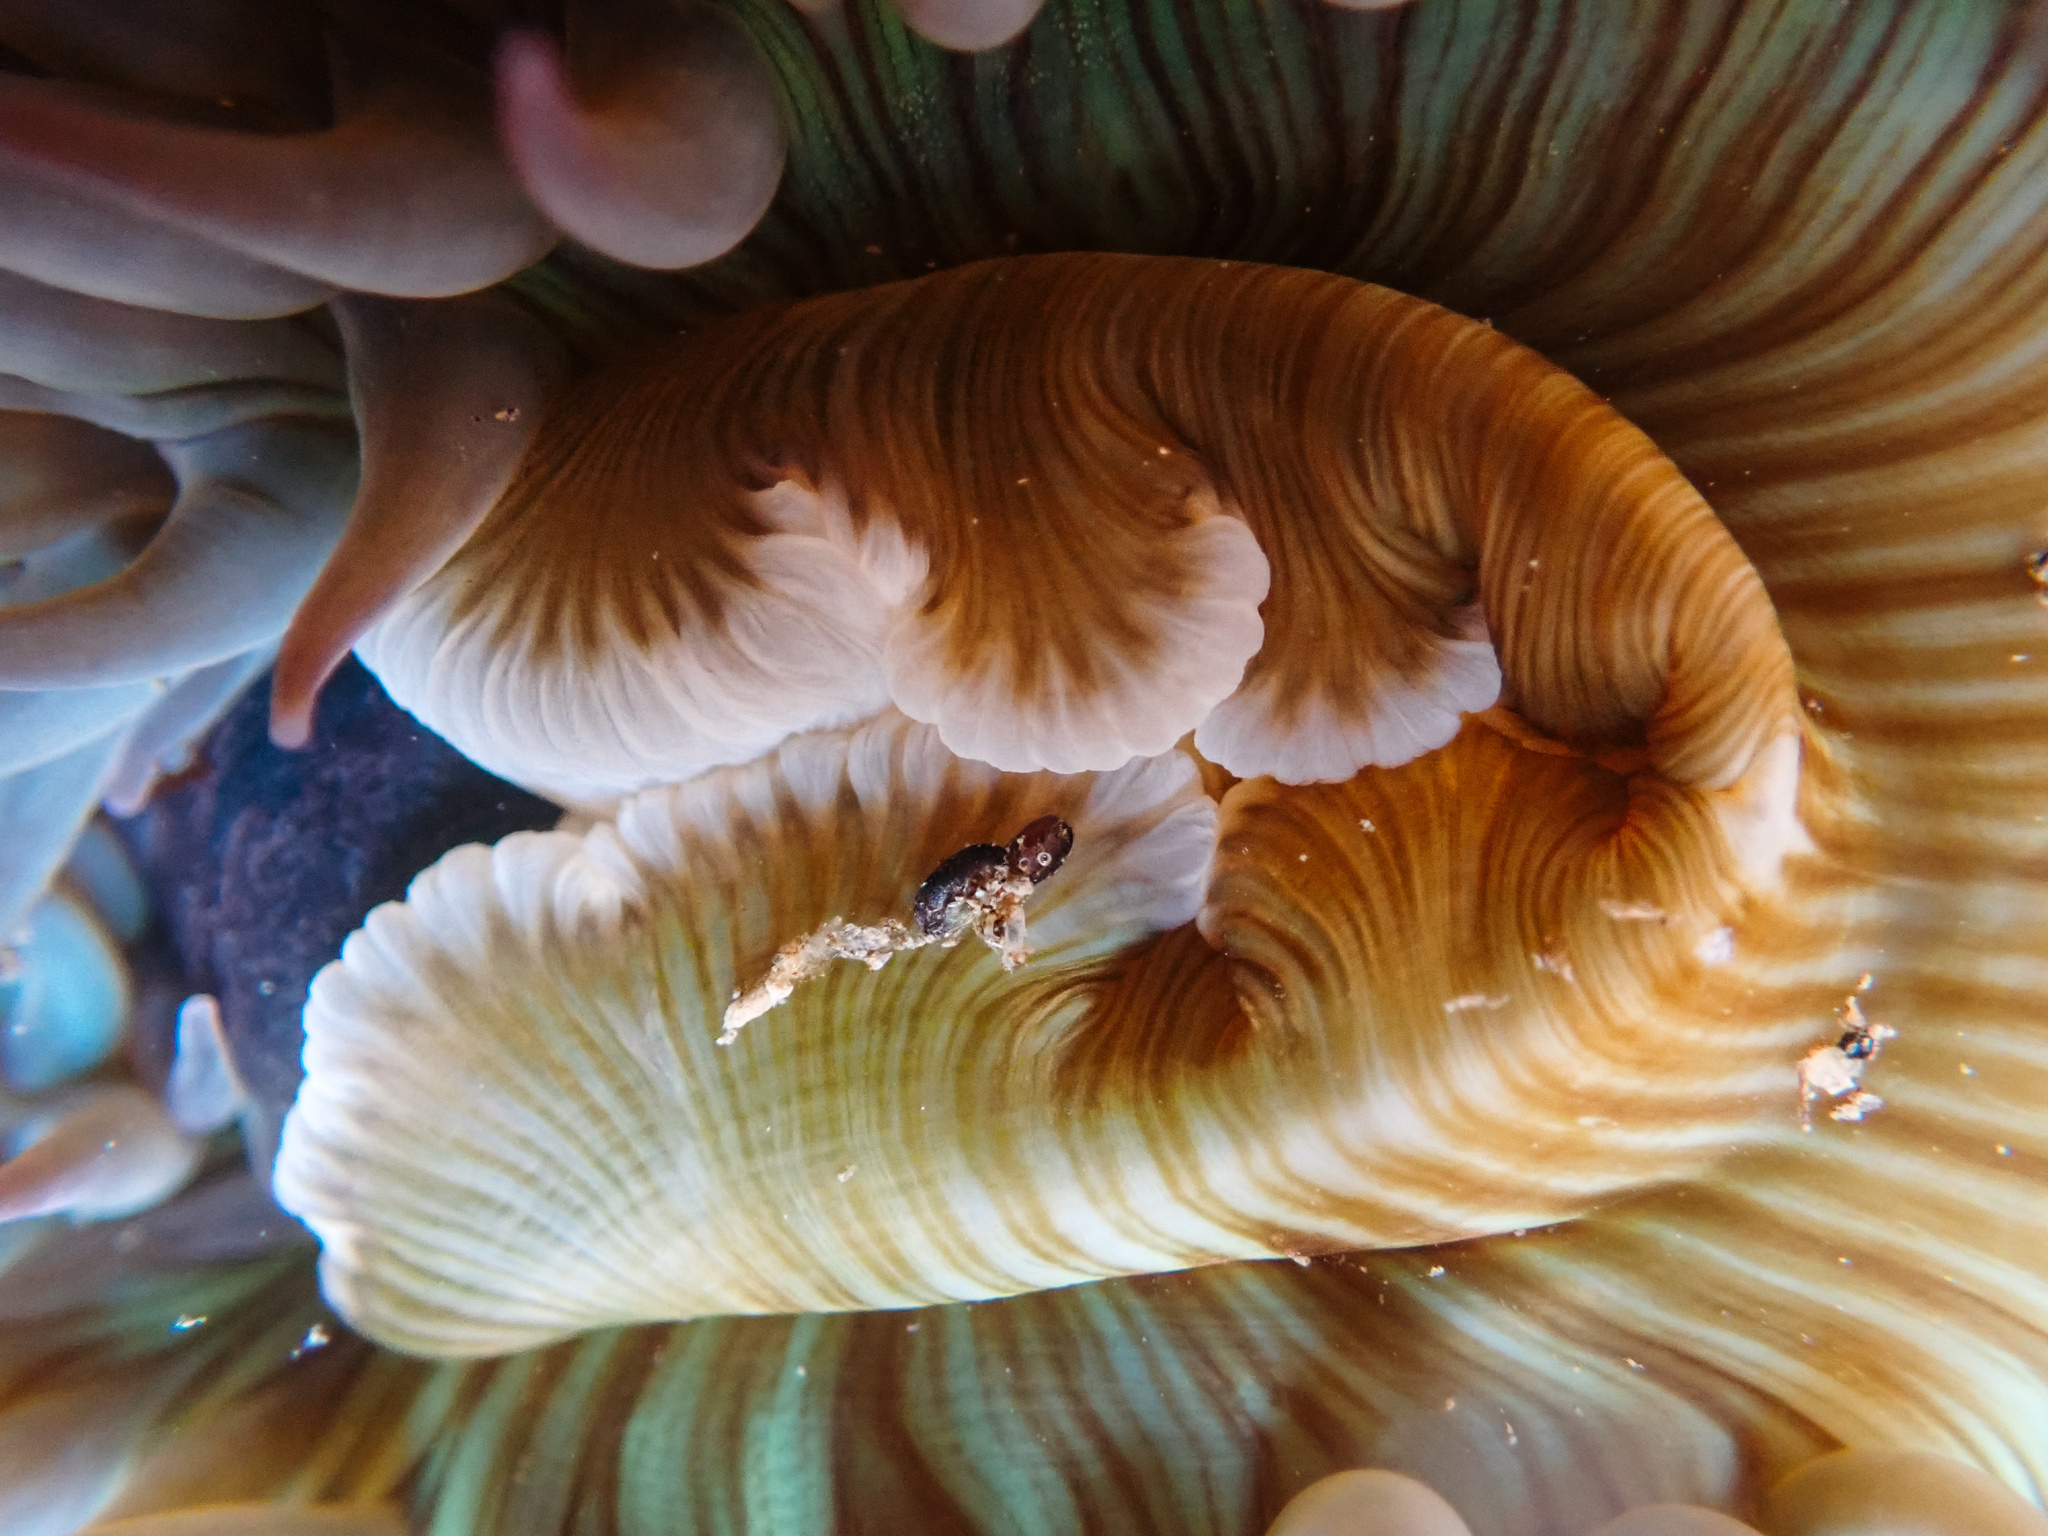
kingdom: Animalia
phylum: Cnidaria
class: Anthozoa
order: Actiniaria
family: Actiniidae
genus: Anthopleura
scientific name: Anthopleura sola
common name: Sun anemone
